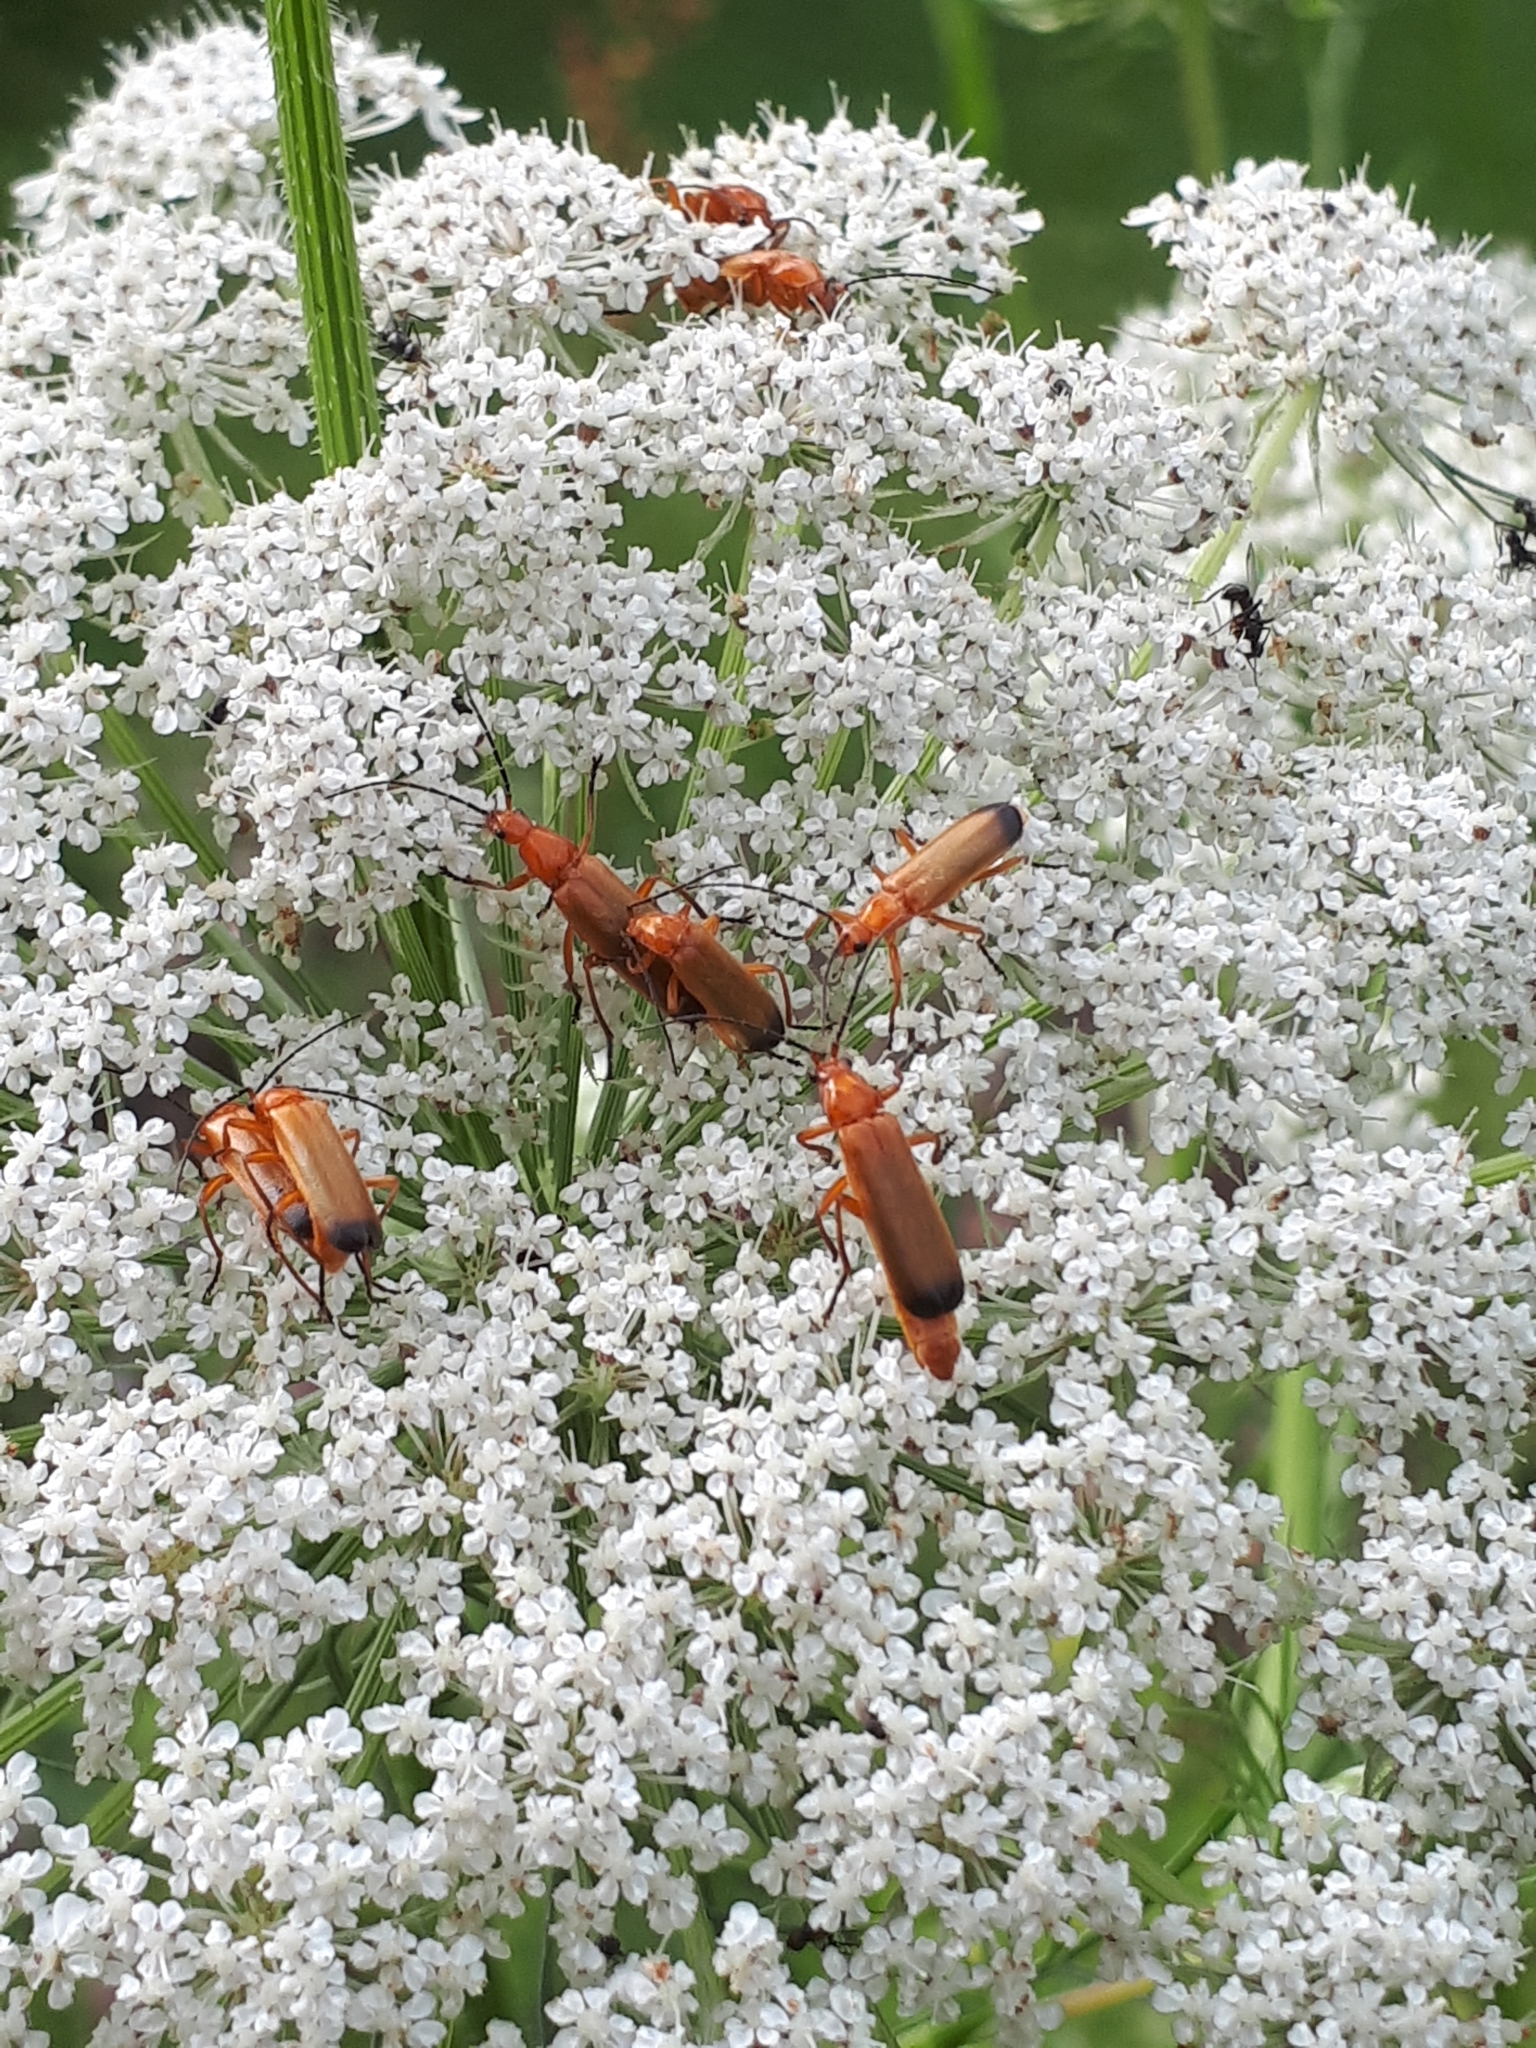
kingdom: Animalia
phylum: Arthropoda
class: Insecta
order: Coleoptera
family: Cantharidae
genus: Rhagonycha
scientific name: Rhagonycha fulva
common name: Common red soldier beetle
